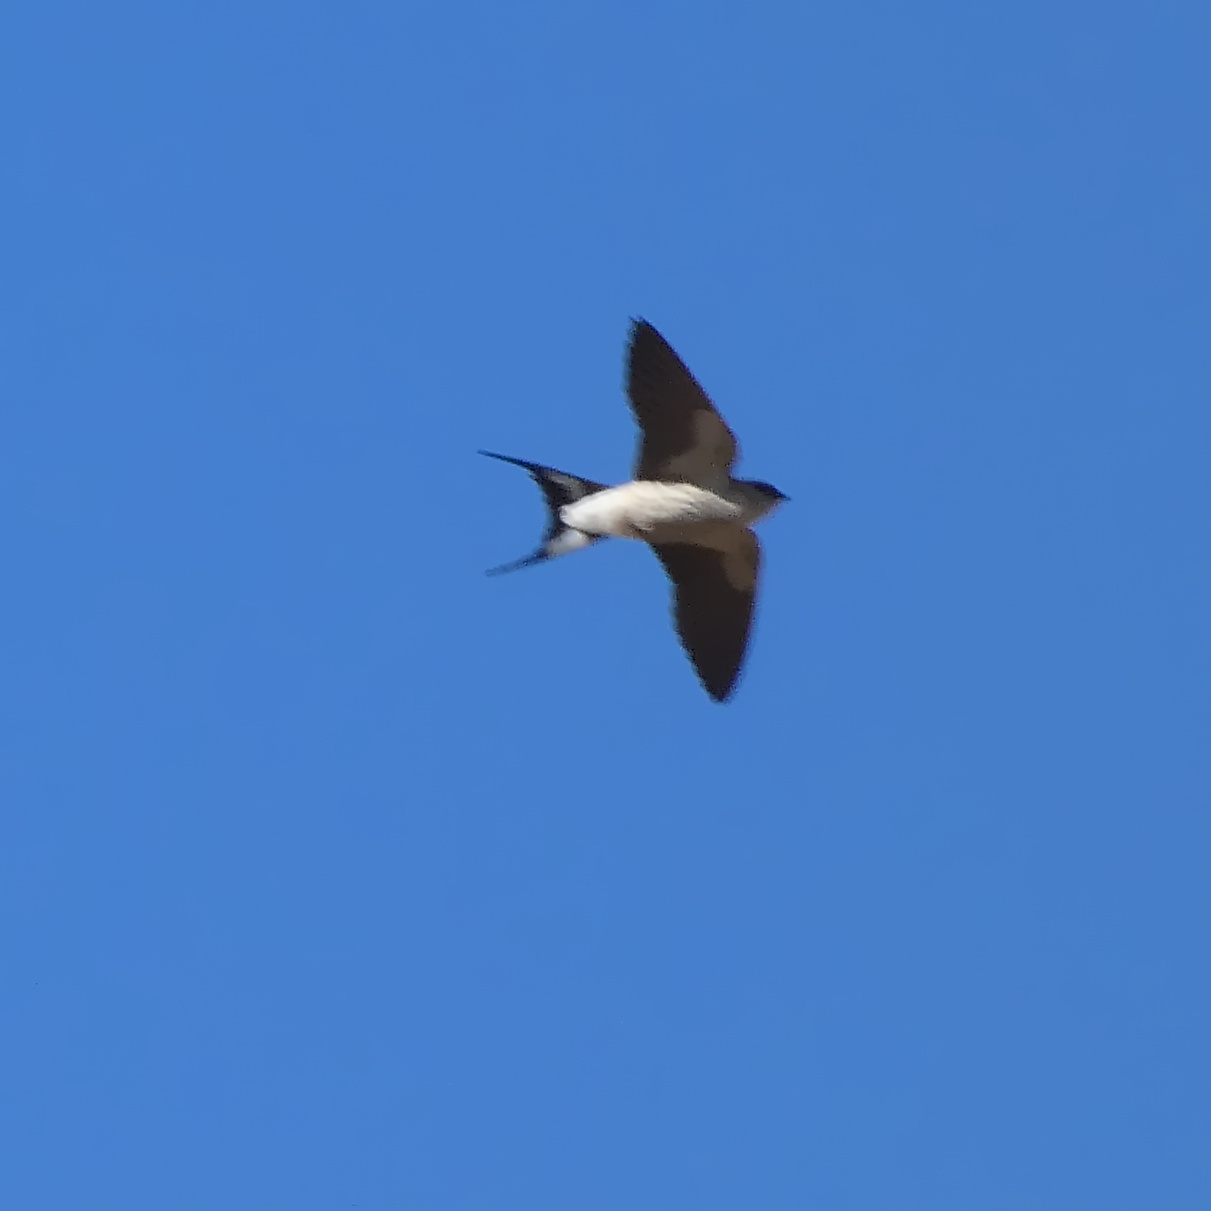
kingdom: Animalia
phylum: Chordata
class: Aves
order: Passeriformes
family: Hirundinidae
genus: Cecropis
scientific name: Cecropis cucullata
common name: Greater striped-swallow
